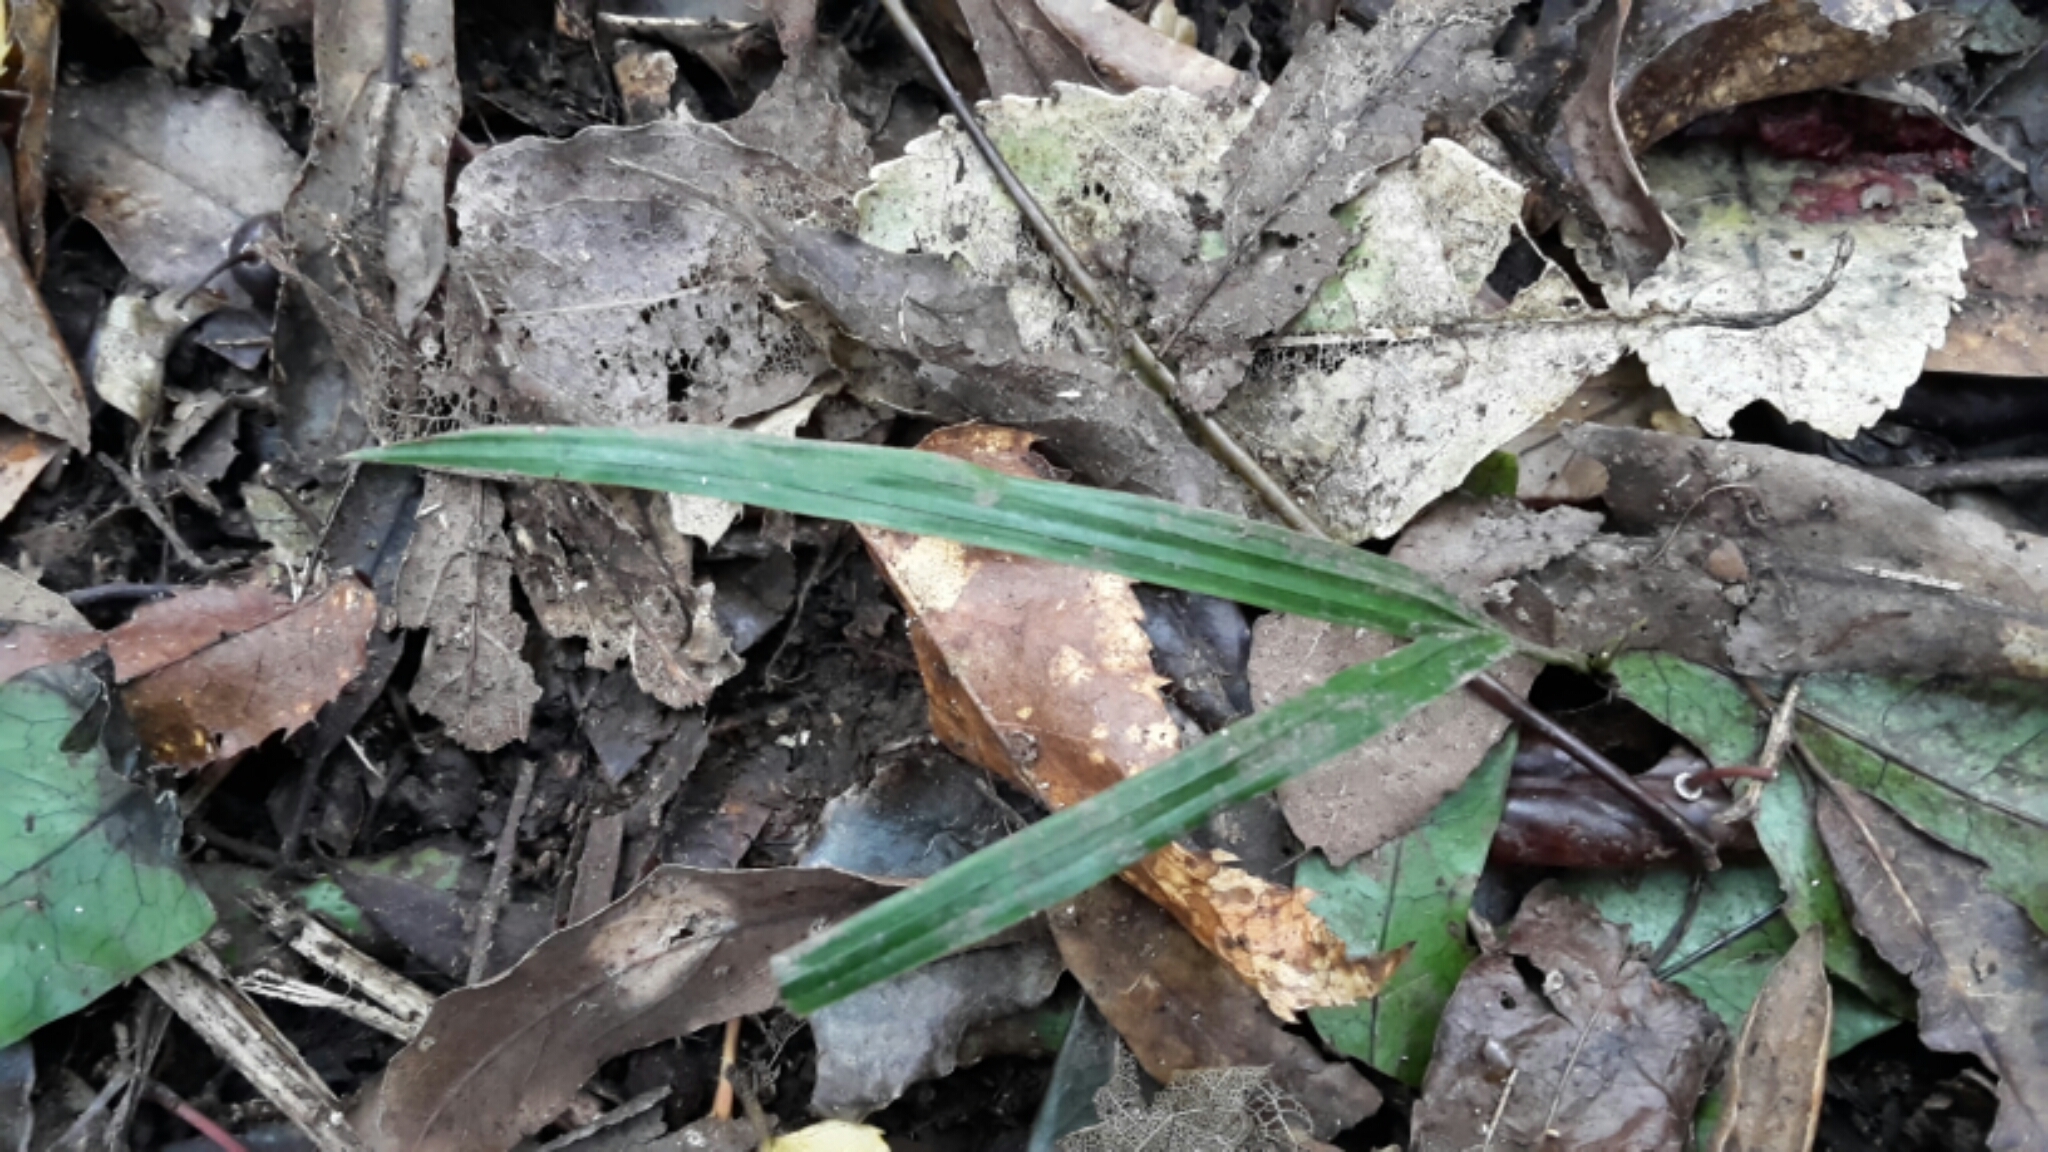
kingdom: Plantae
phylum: Tracheophyta
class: Liliopsida
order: Arecales
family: Arecaceae
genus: Rhopalostylis
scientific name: Rhopalostylis sapida
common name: Feather-duster palm
